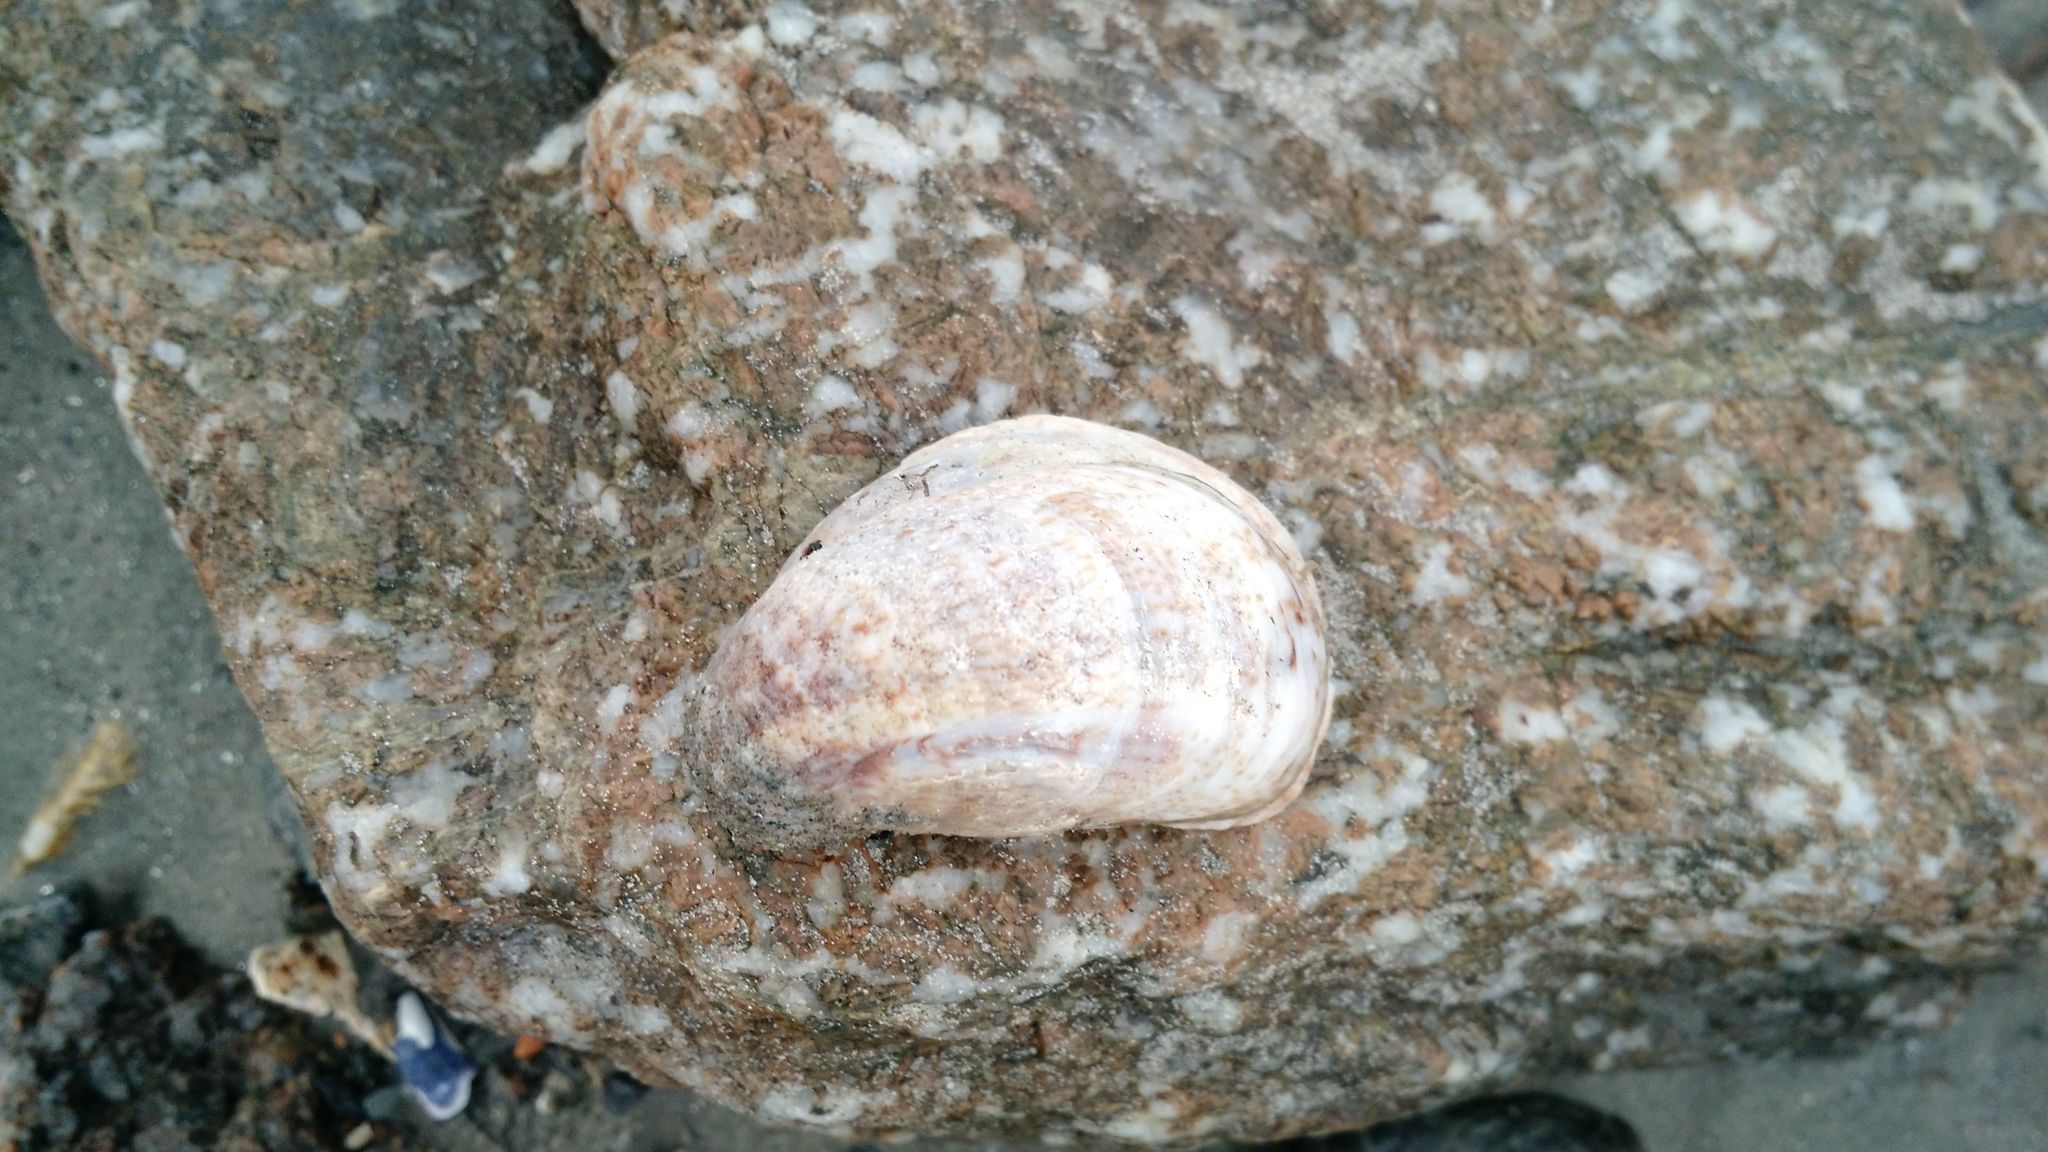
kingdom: Animalia
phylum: Mollusca
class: Gastropoda
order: Littorinimorpha
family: Calyptraeidae
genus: Crepidula
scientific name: Crepidula fornicata
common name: Slipper limpet
